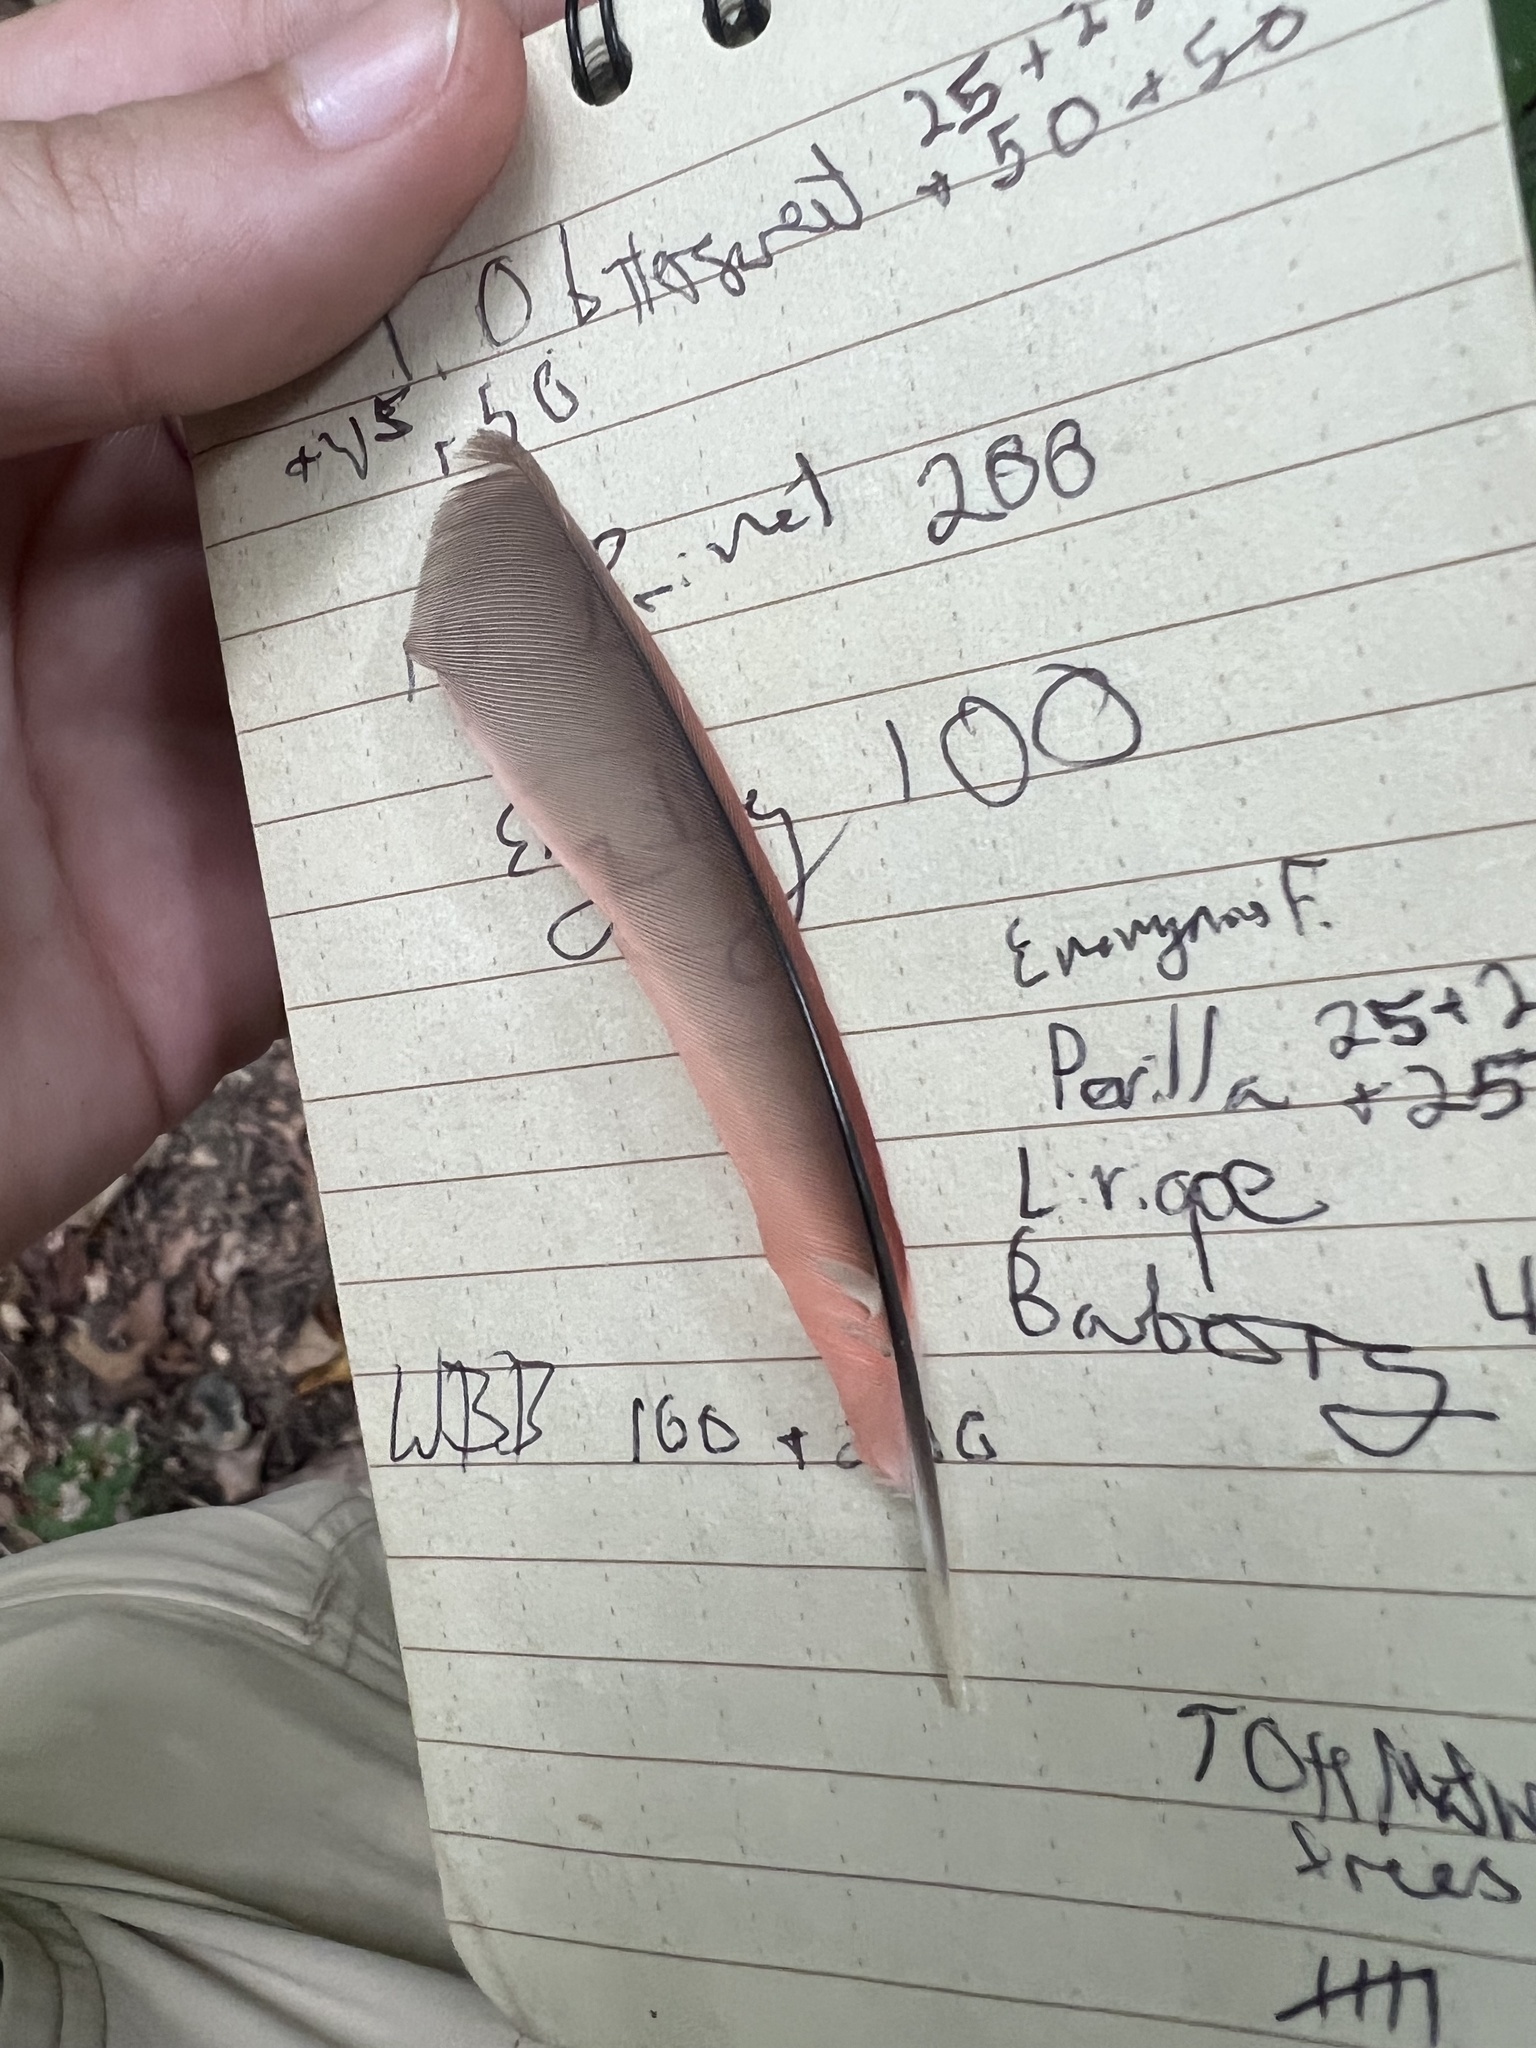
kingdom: Animalia
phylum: Chordata
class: Aves
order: Passeriformes
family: Cardinalidae
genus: Cardinalis
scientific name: Cardinalis cardinalis
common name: Northern cardinal
